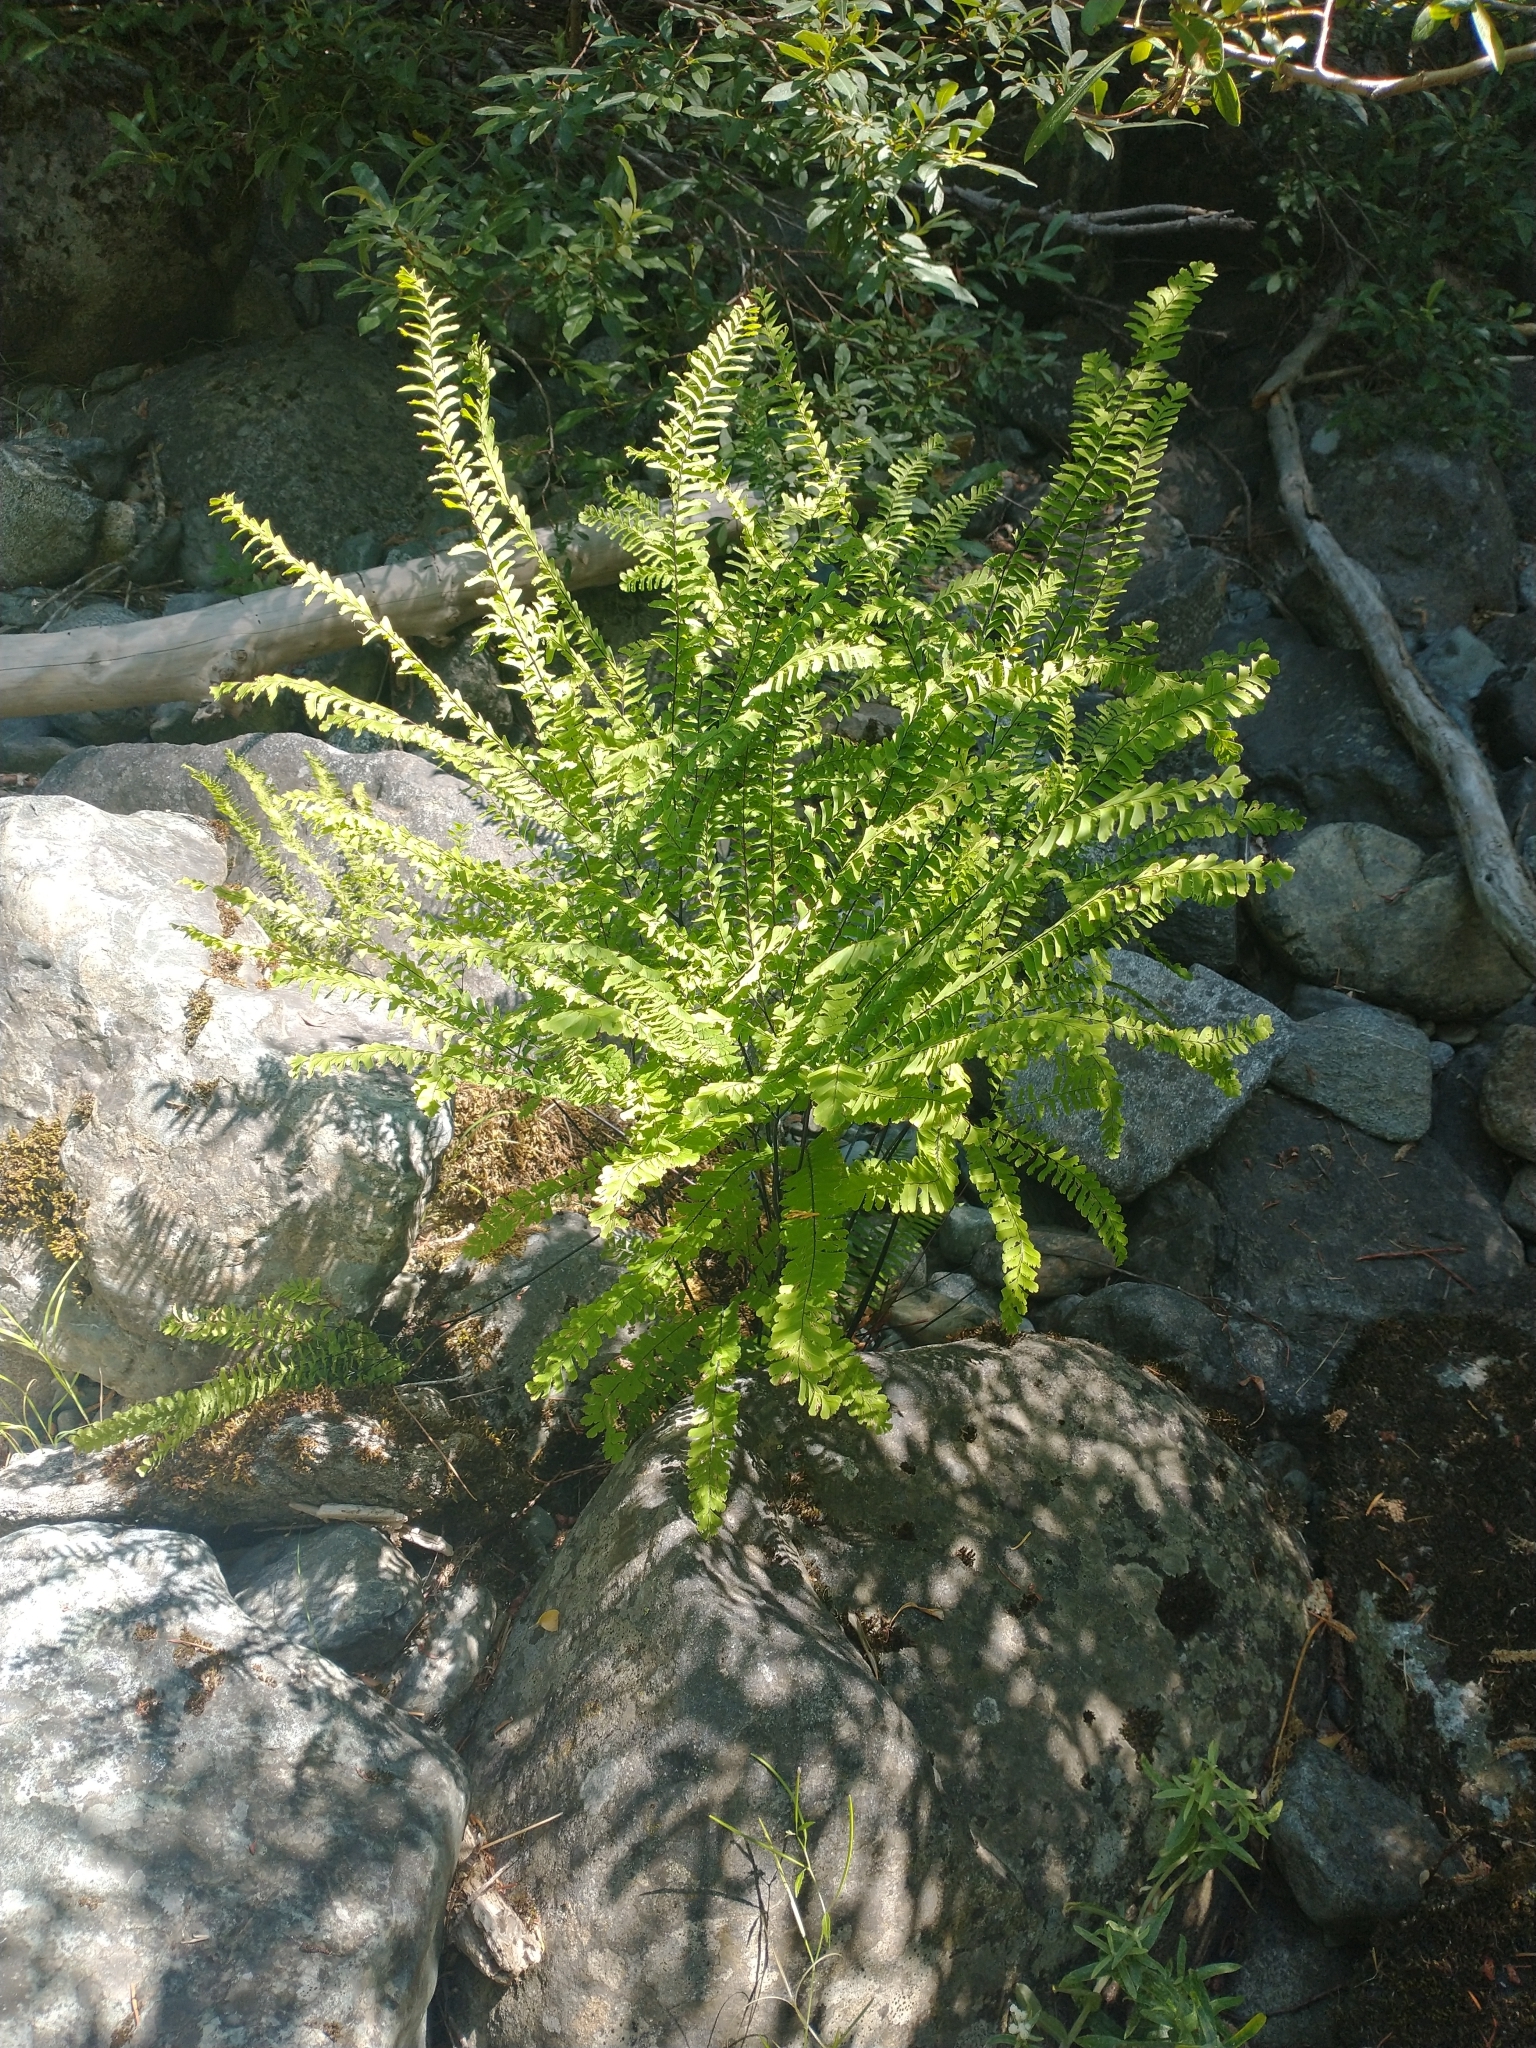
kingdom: Plantae
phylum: Tracheophyta
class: Polypodiopsida
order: Polypodiales
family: Pteridaceae
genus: Adiantum
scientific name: Adiantum aleuticum
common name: Aleutian maidenhair fern
